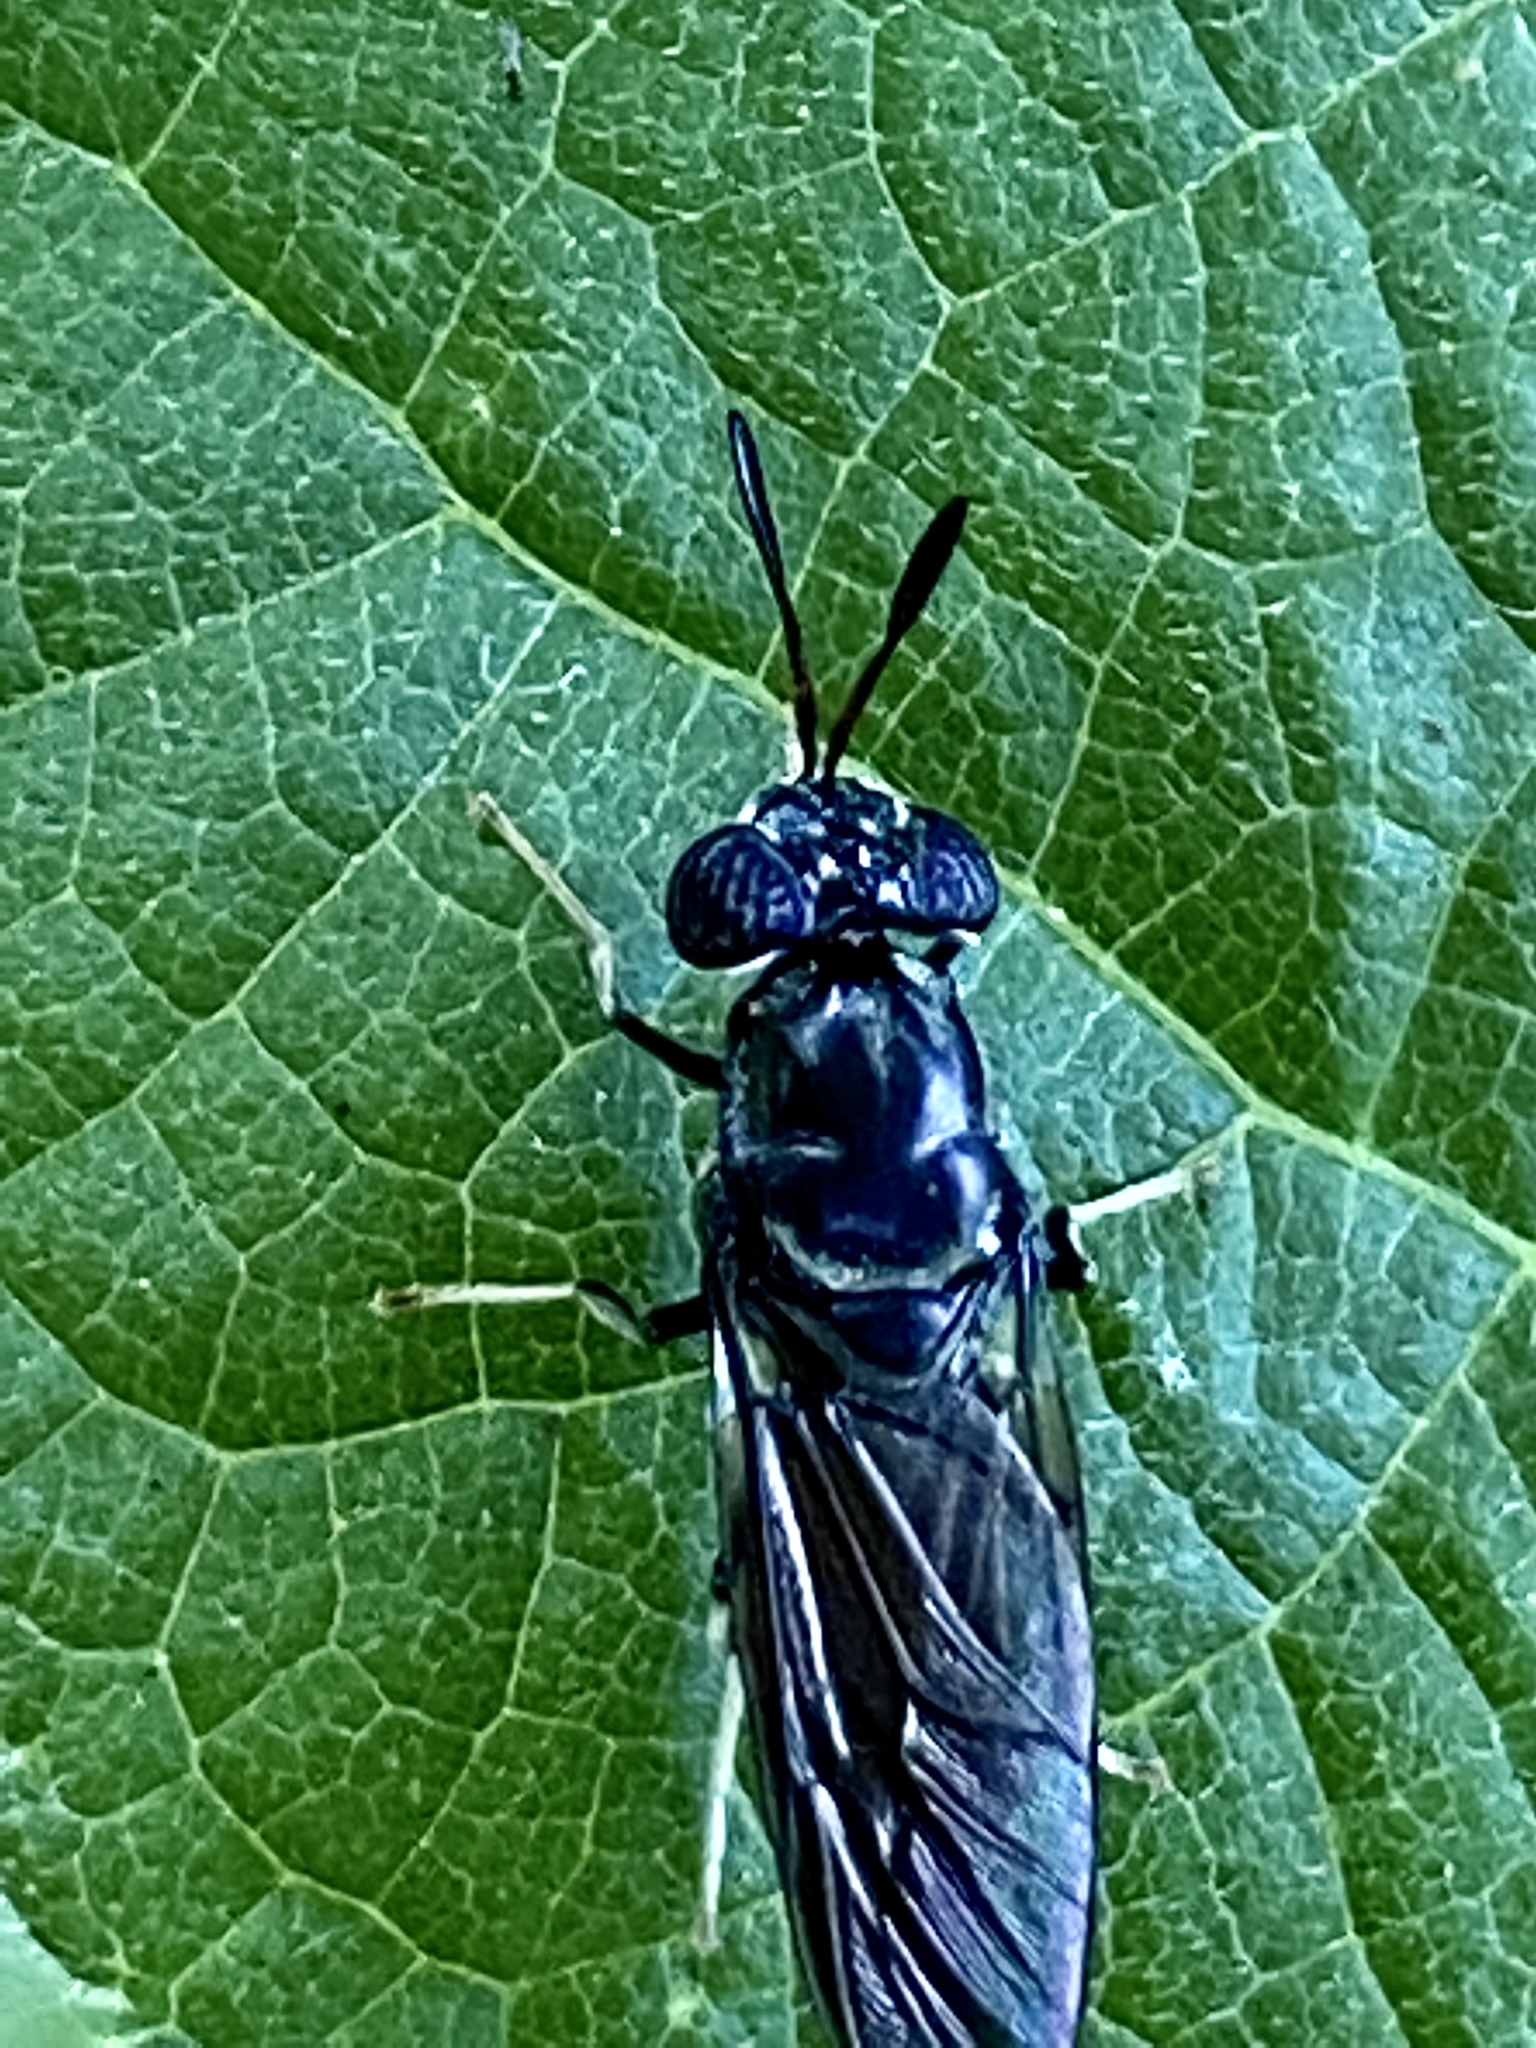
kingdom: Animalia
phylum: Arthropoda
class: Insecta
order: Diptera
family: Stratiomyidae
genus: Hermetia
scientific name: Hermetia illucens
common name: Black soldier fly
